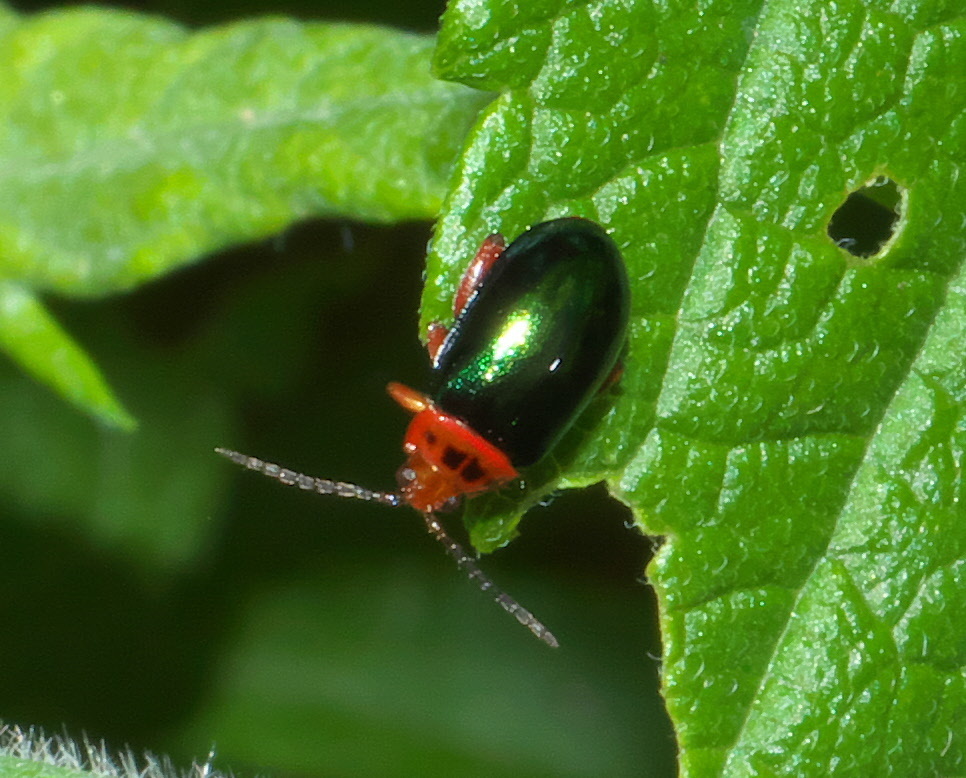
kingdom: Animalia
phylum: Arthropoda
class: Insecta
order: Coleoptera
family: Chrysomelidae
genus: Kuschelina
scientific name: Kuschelina gibbitarsa
